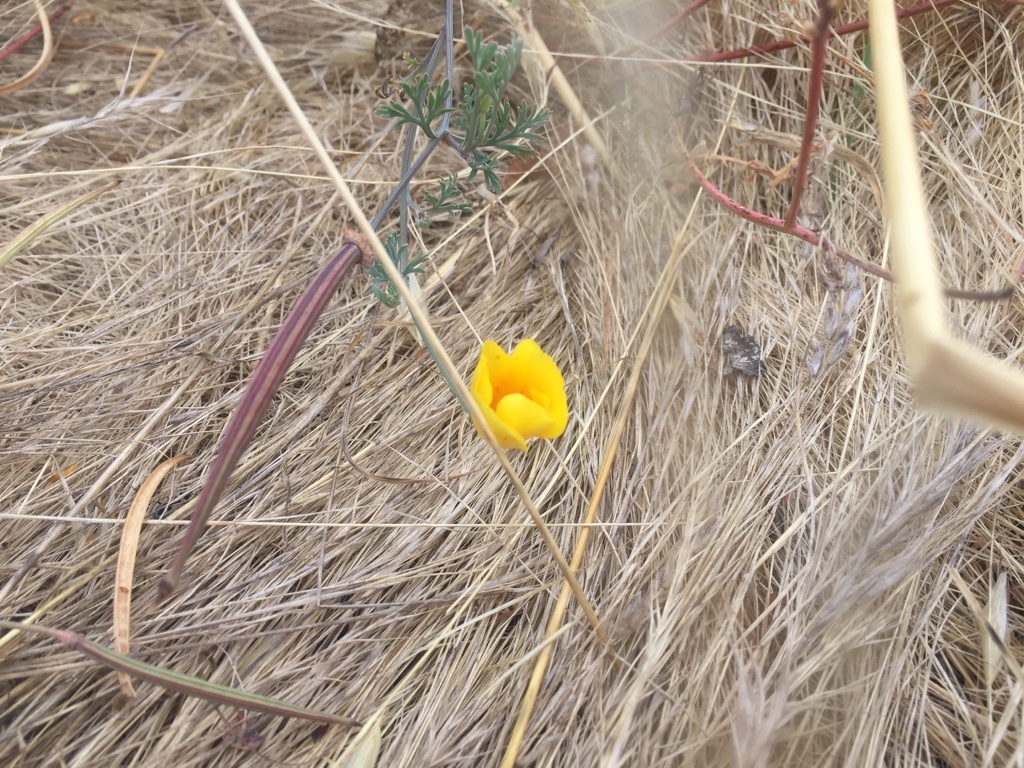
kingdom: Plantae
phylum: Tracheophyta
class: Magnoliopsida
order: Ranunculales
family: Papaveraceae
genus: Eschscholzia
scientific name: Eschscholzia californica
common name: California poppy
